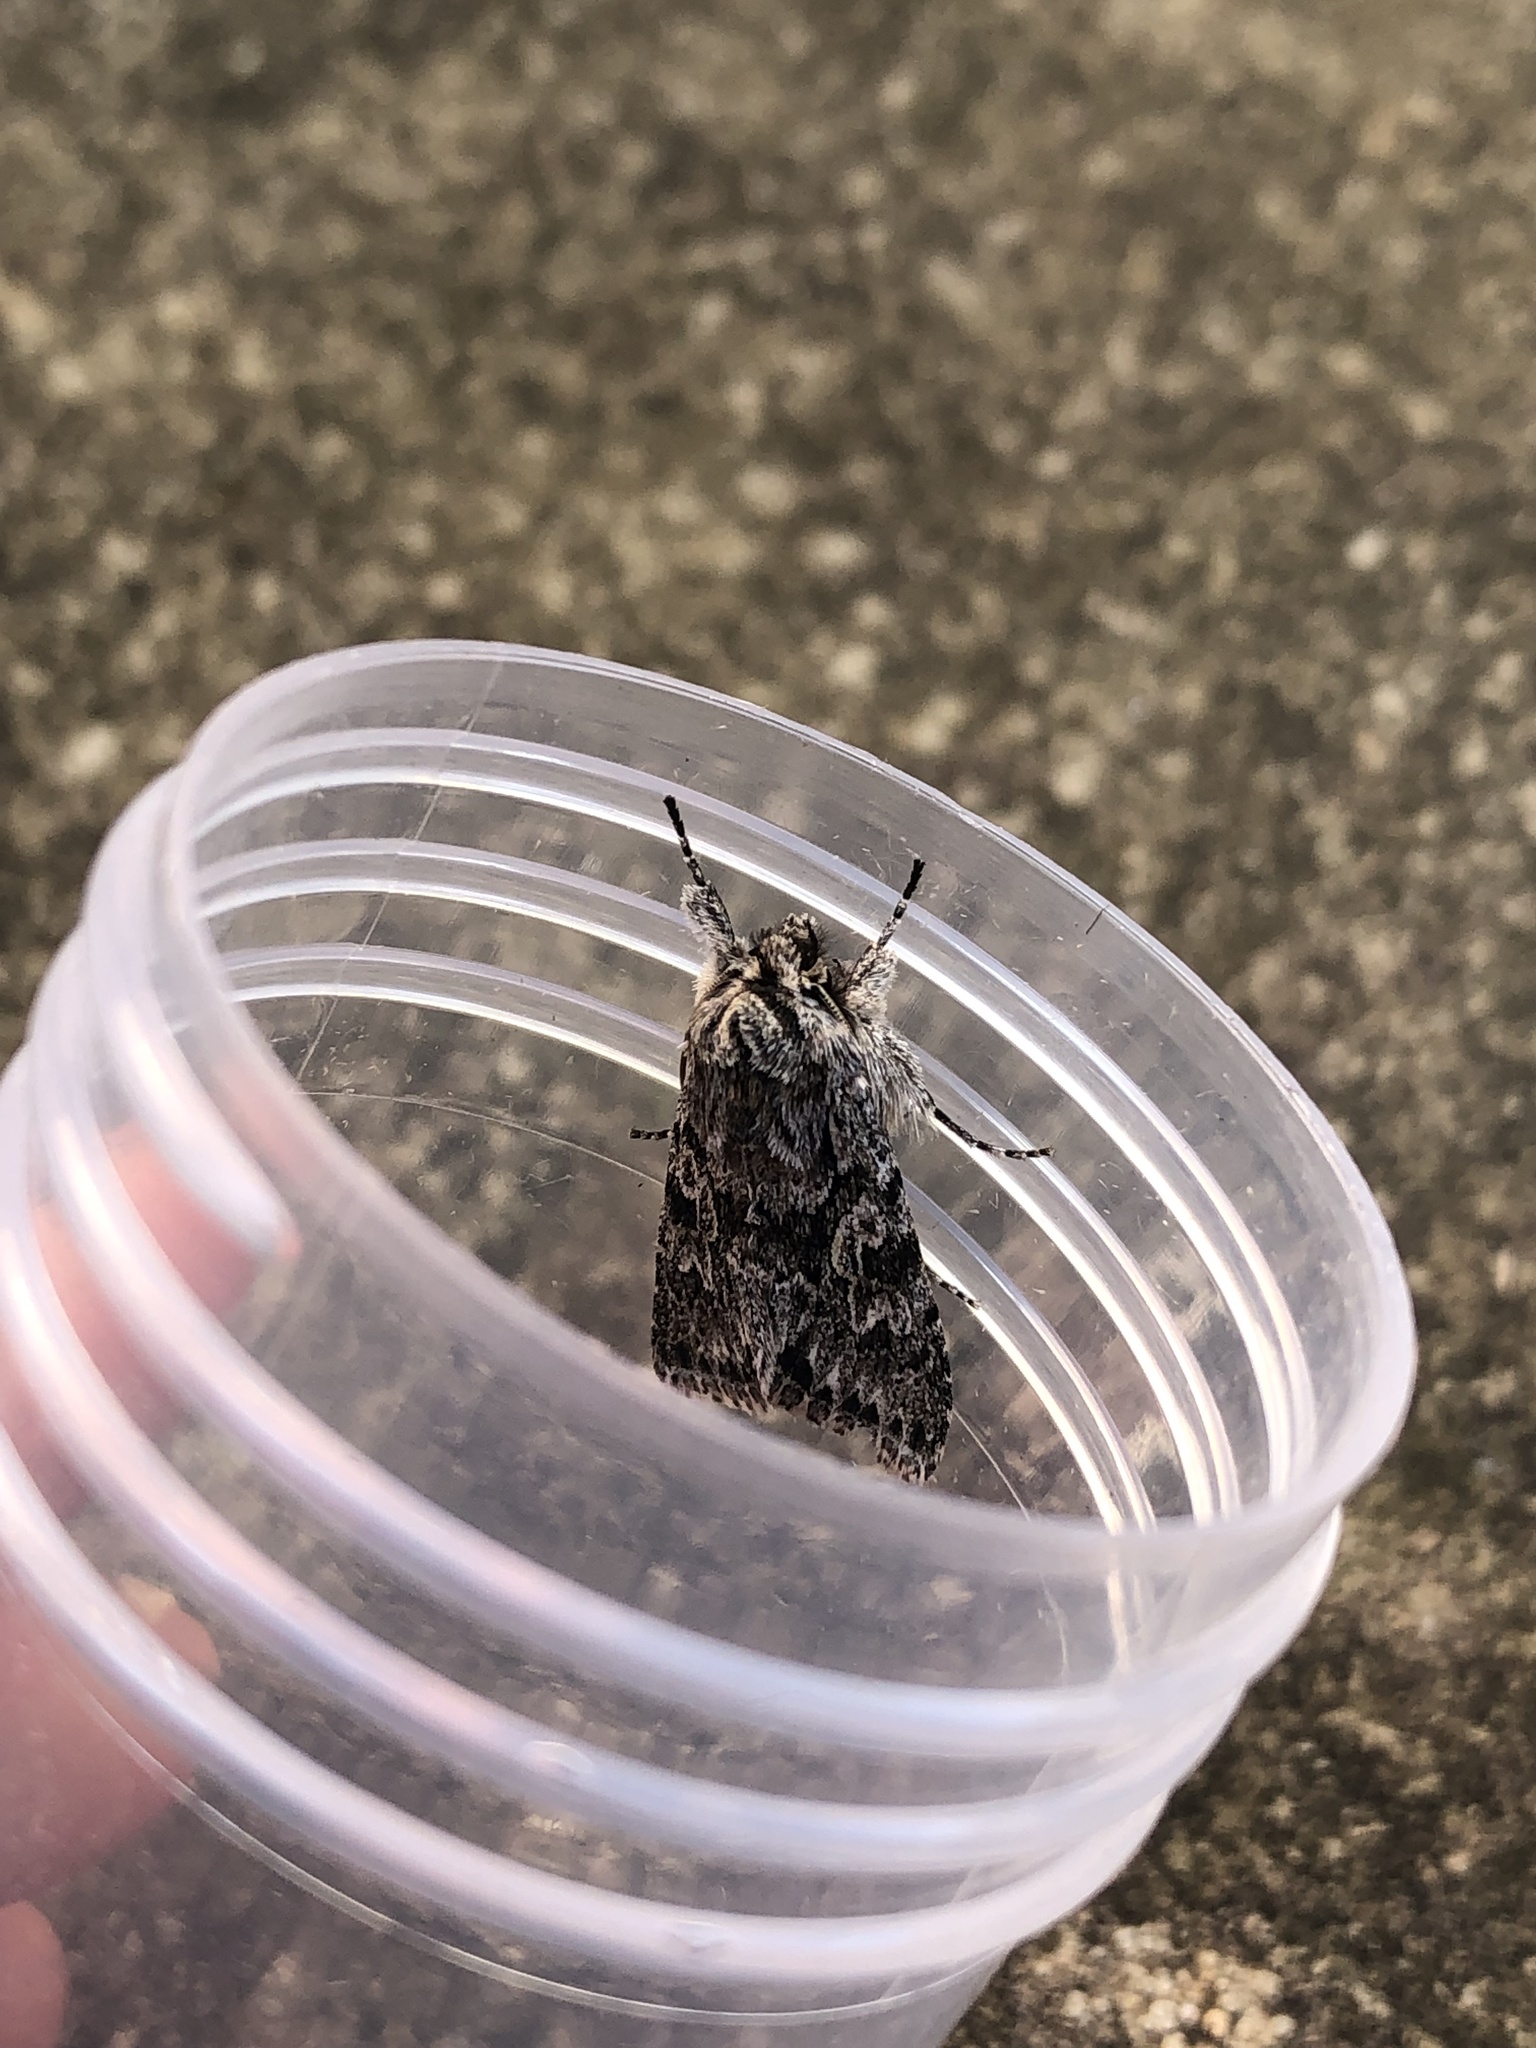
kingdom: Animalia
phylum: Arthropoda
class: Insecta
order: Lepidoptera
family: Noctuidae
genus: Xylocampa
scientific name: Xylocampa areola
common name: Early grey
